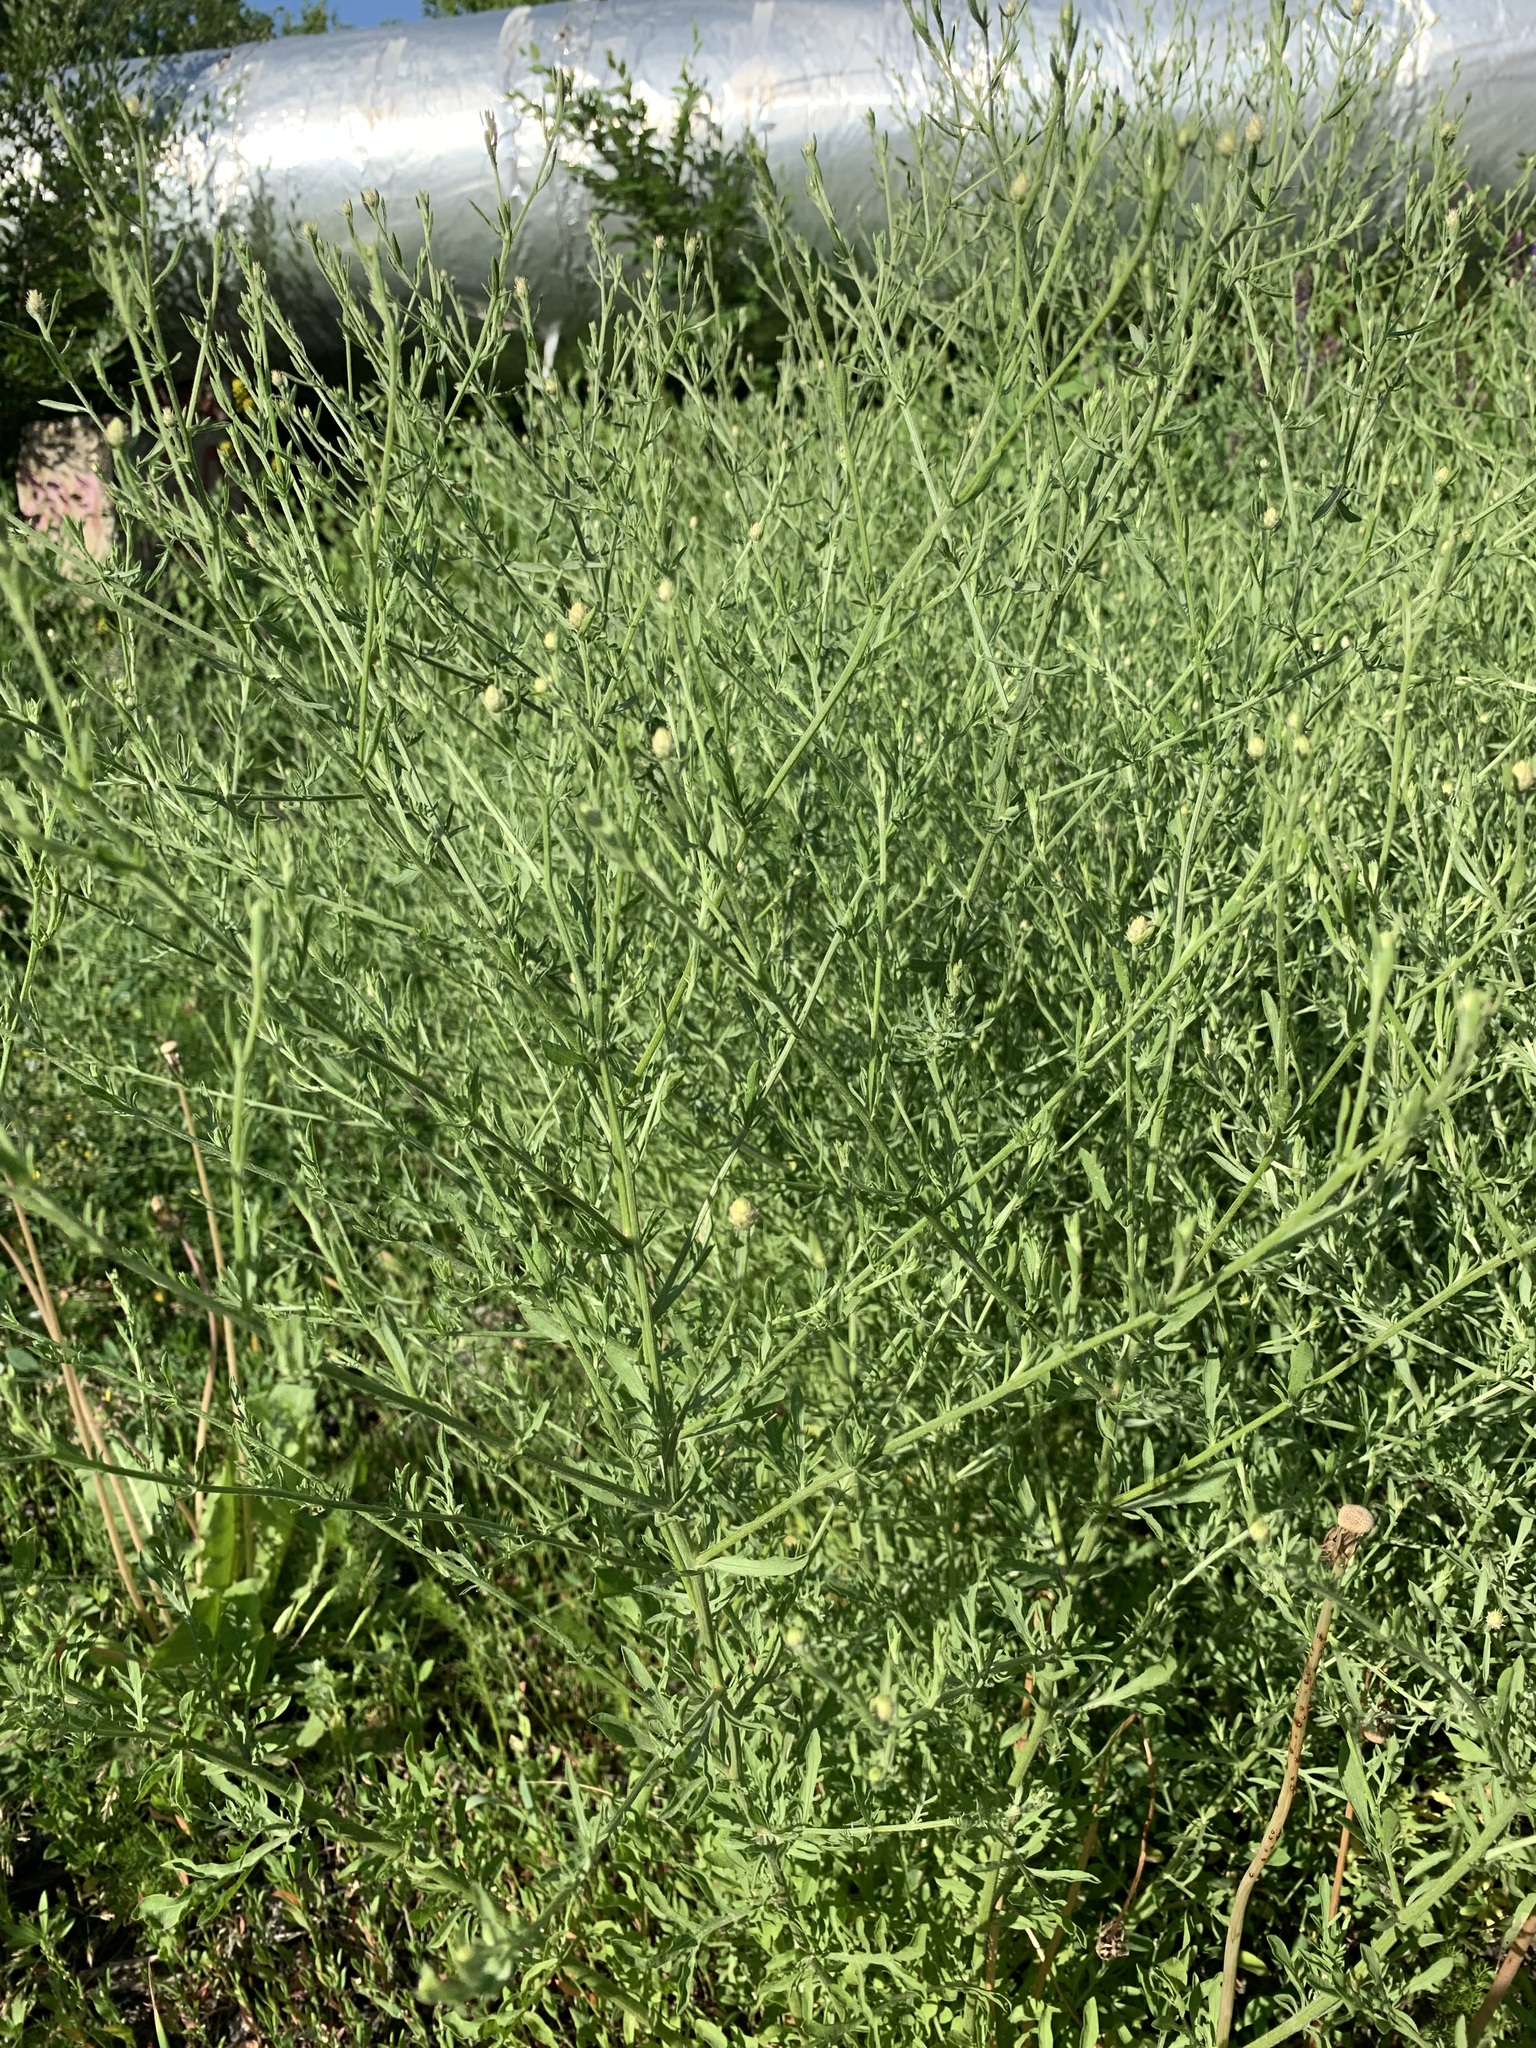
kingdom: Plantae
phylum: Tracheophyta
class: Magnoliopsida
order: Asterales
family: Asteraceae
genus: Centaurea
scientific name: Centaurea diffusa
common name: Diffuse knapweed
